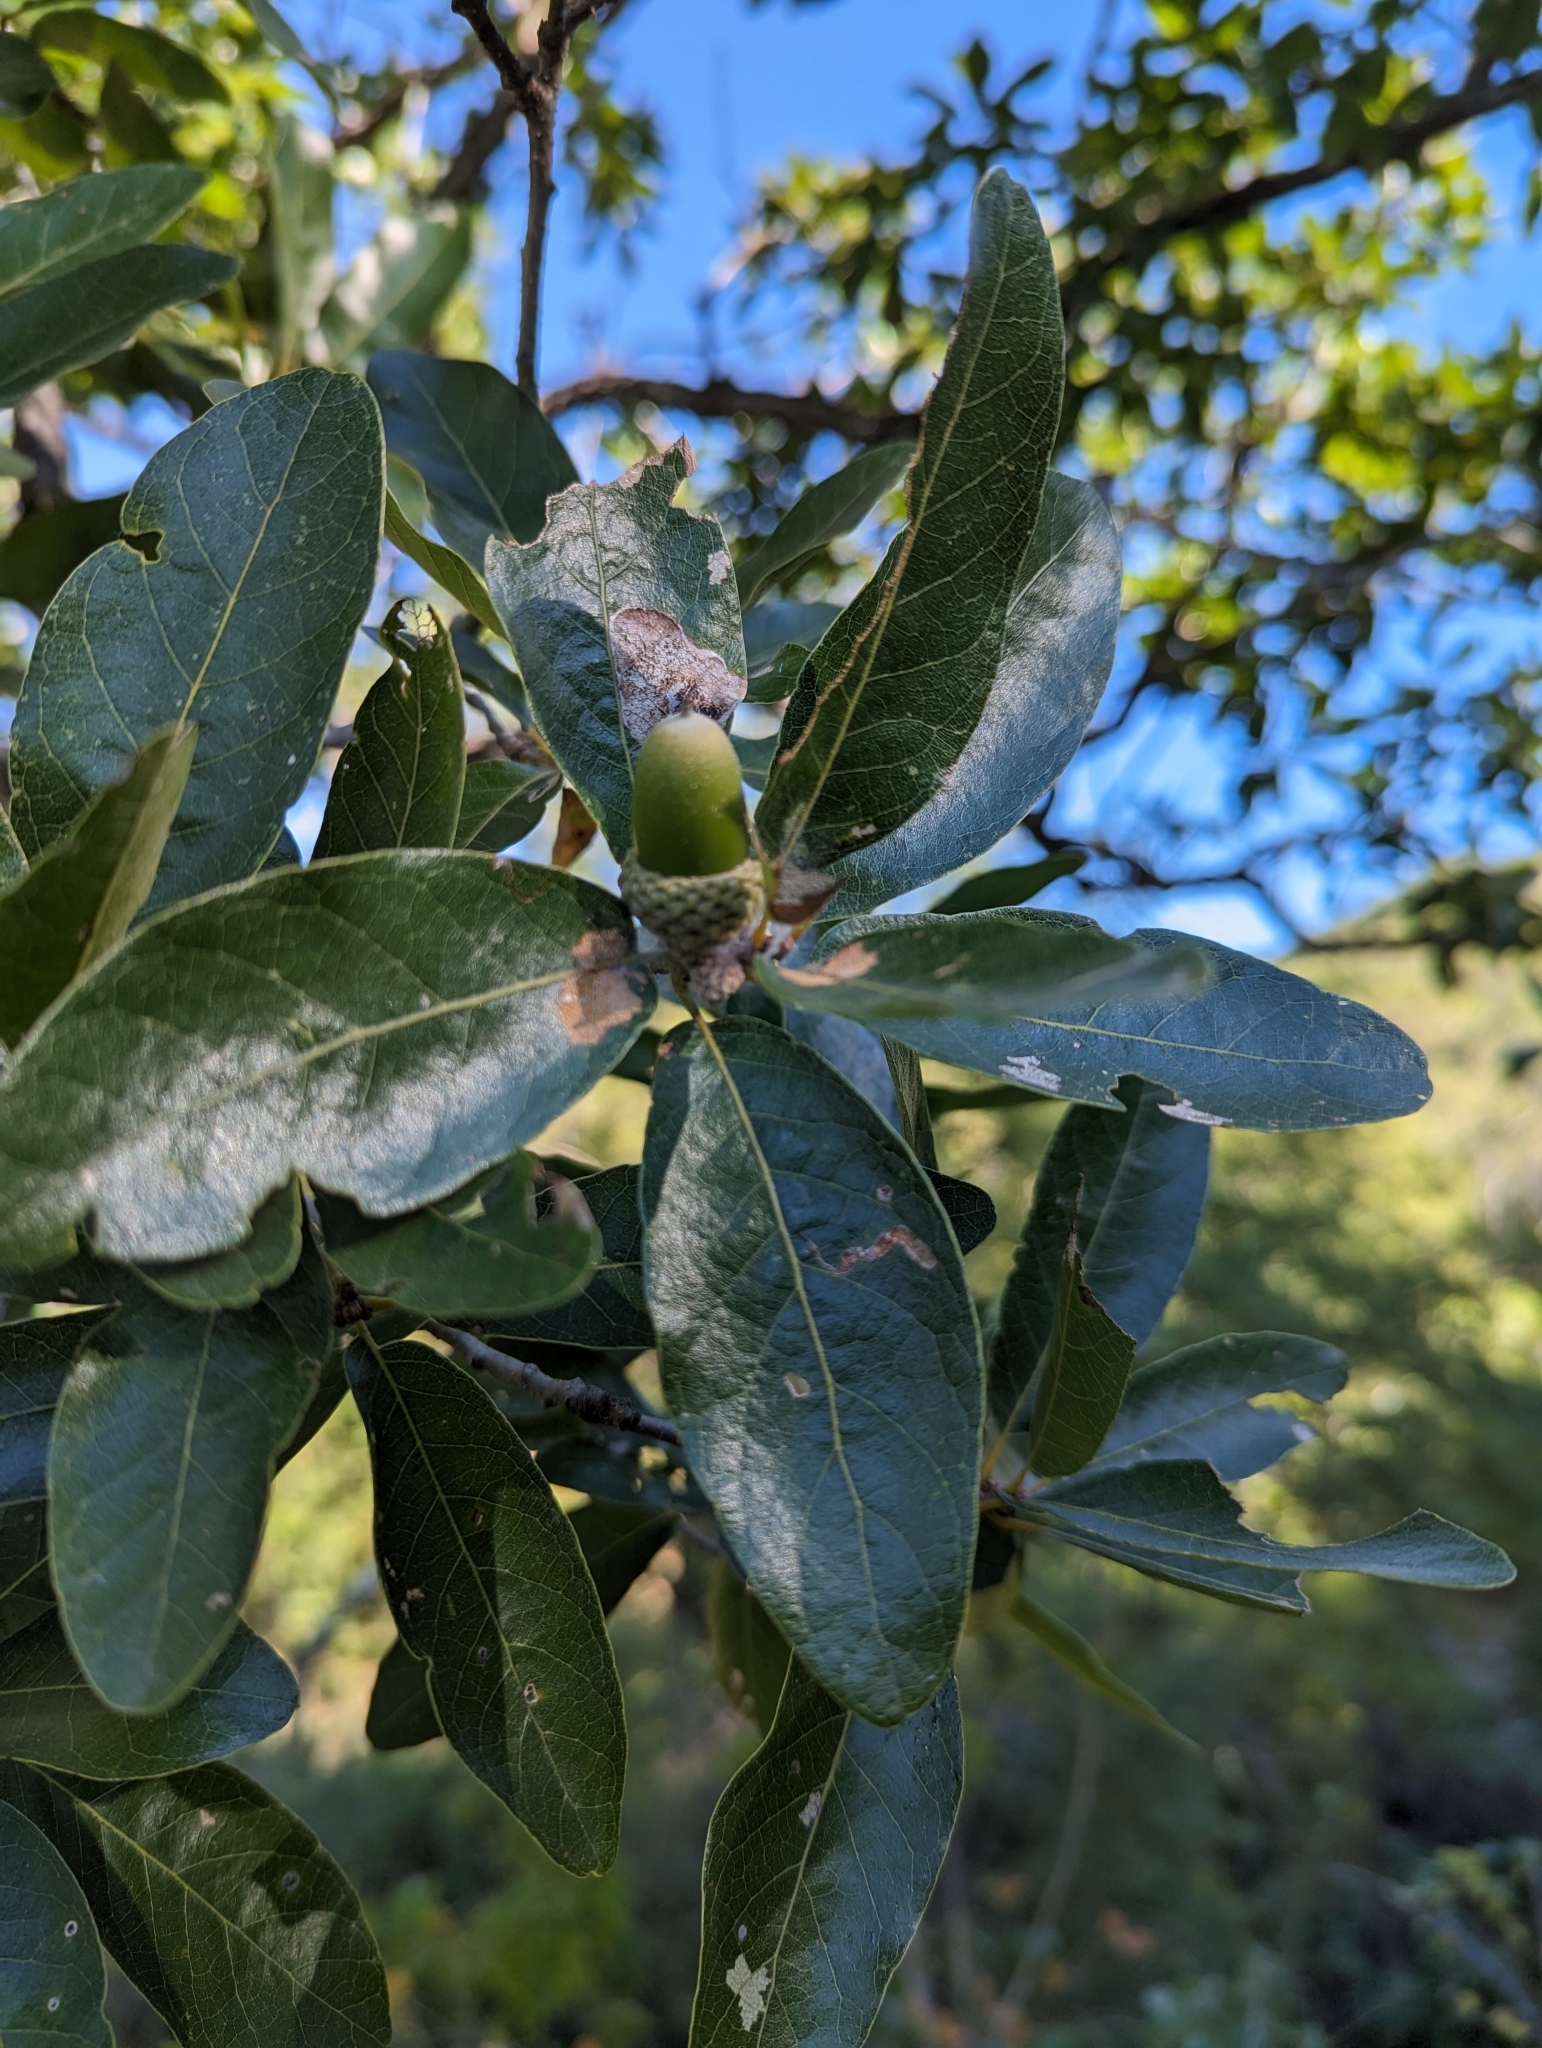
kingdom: Plantae
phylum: Tracheophyta
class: Magnoliopsida
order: Fagales
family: Fagaceae
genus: Quercus
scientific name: Quercus tuberculata
